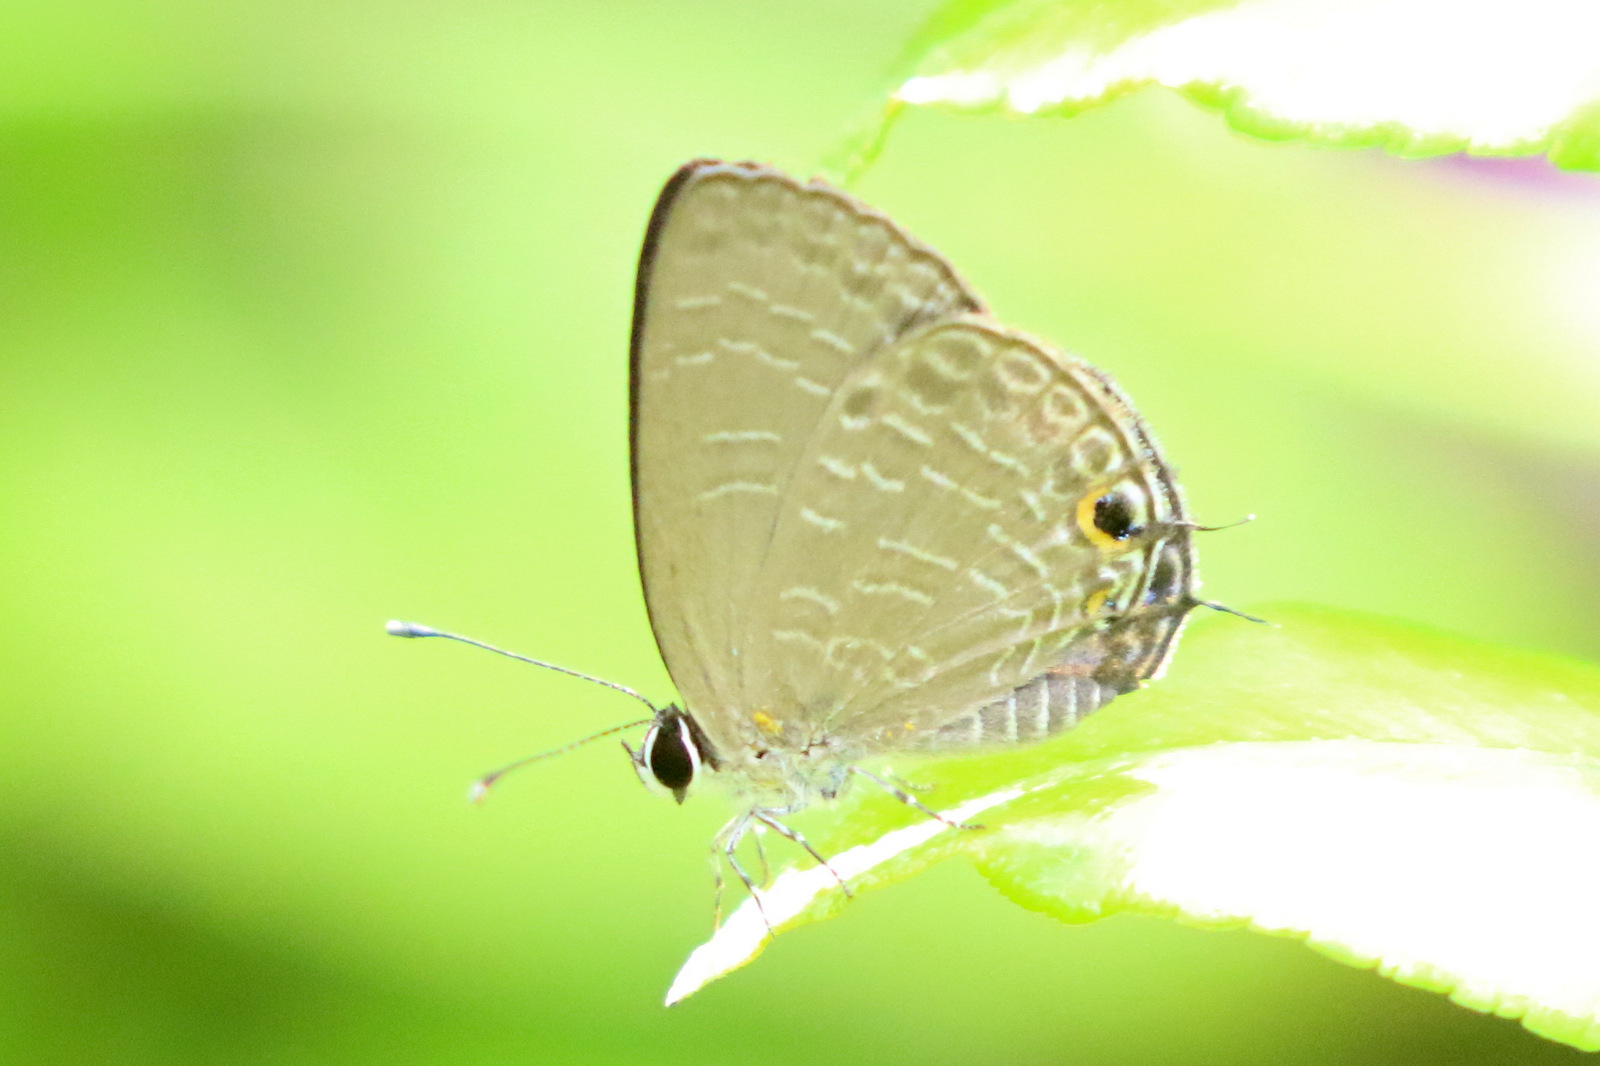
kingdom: Animalia
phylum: Arthropoda
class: Insecta
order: Lepidoptera
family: Lycaenidae
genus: Lycaena
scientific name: Lycaena argentina
